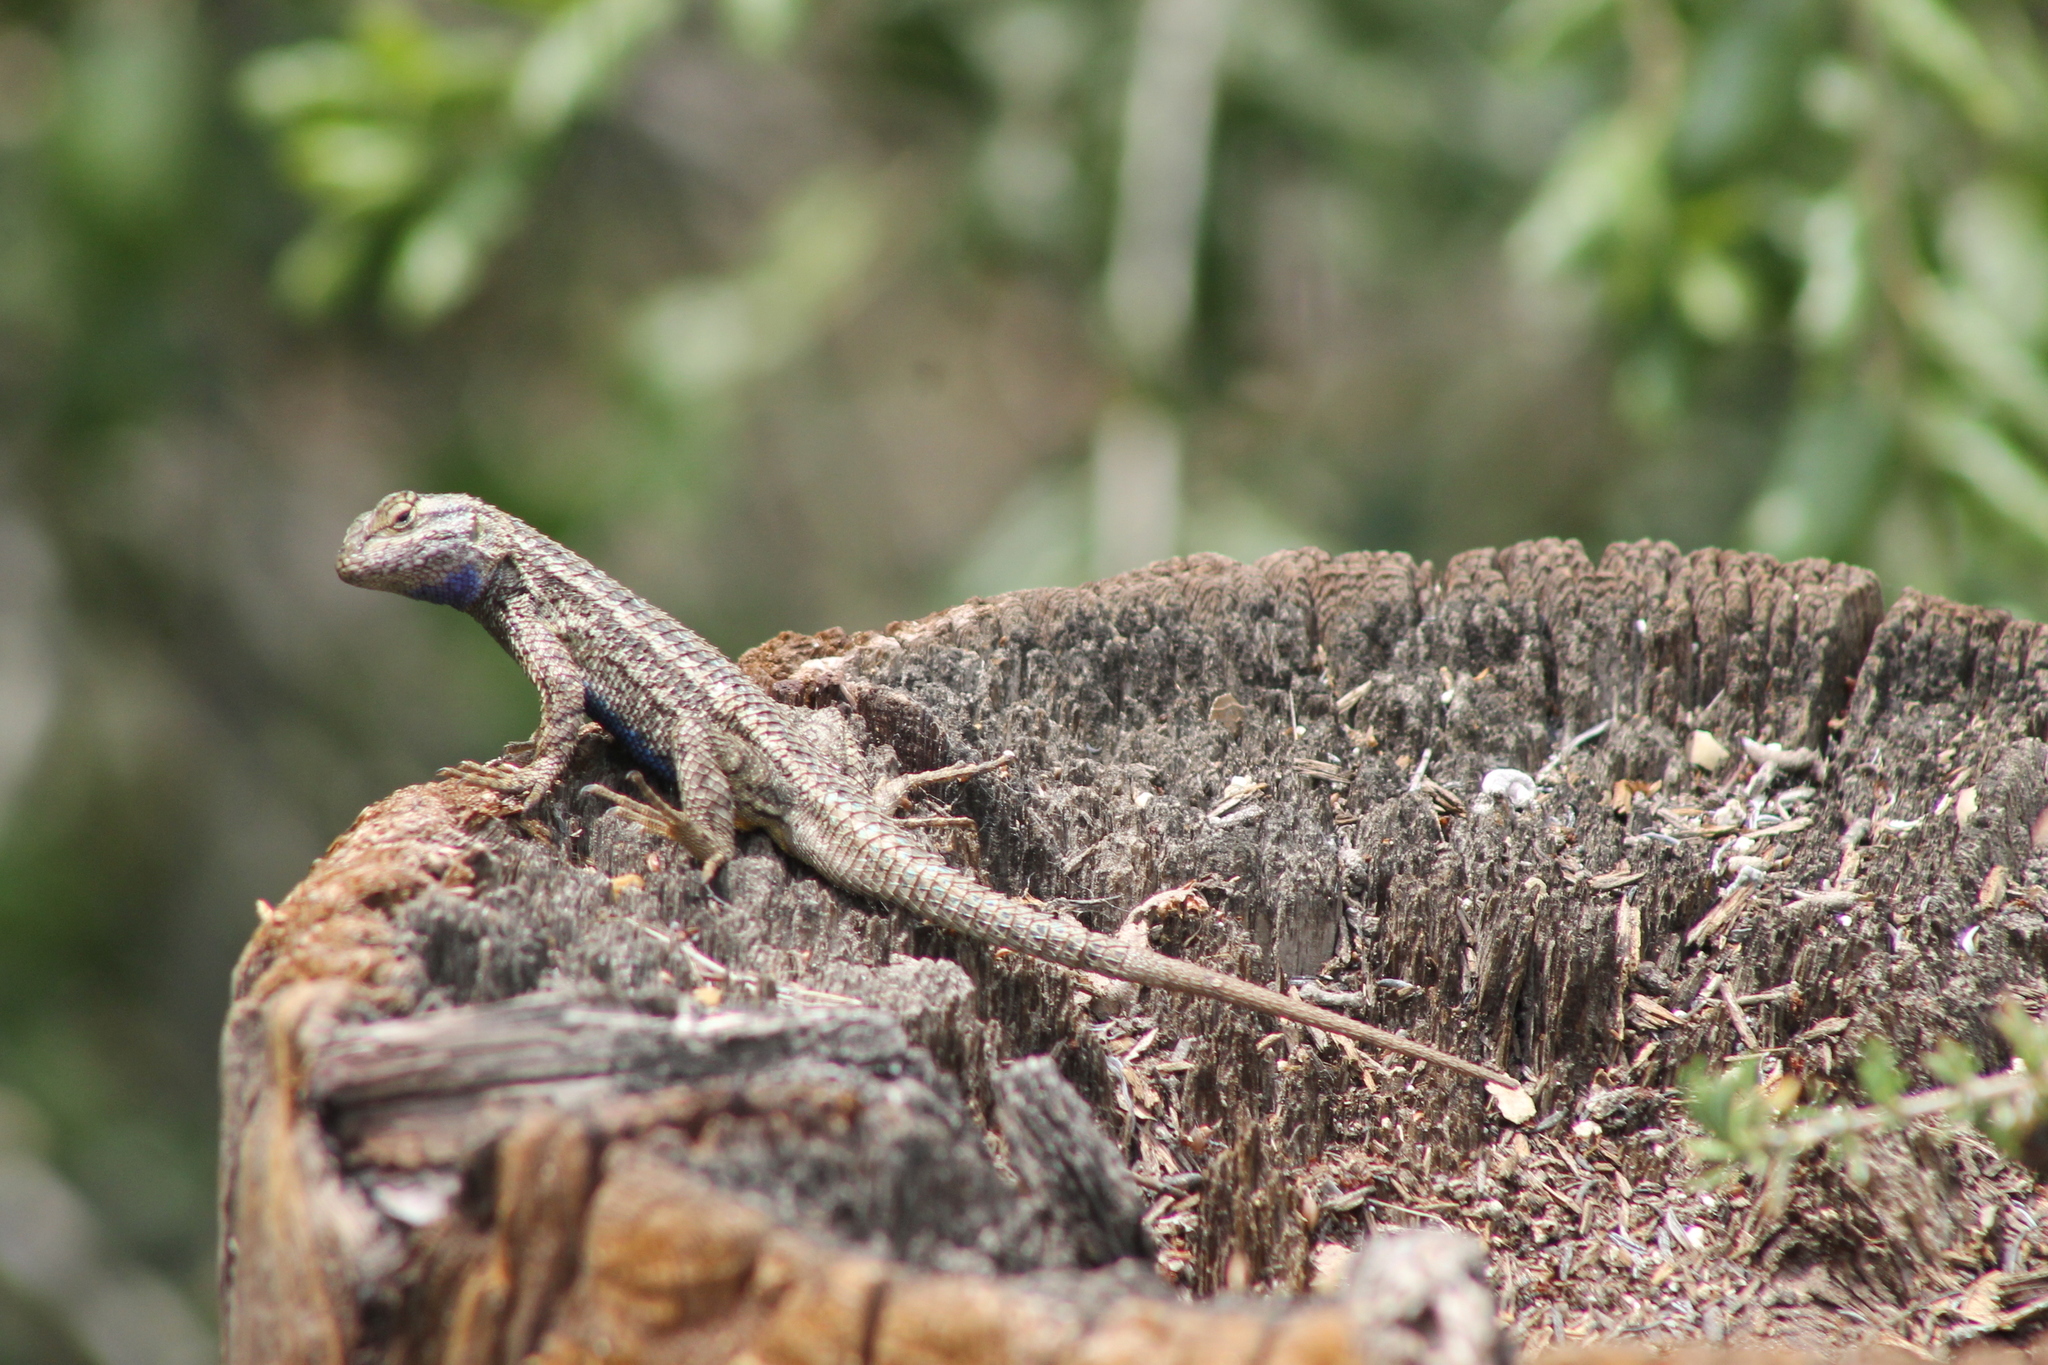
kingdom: Animalia
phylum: Chordata
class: Squamata
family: Phrynosomatidae
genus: Sceloporus
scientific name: Sceloporus occidentalis
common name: Western fence lizard
